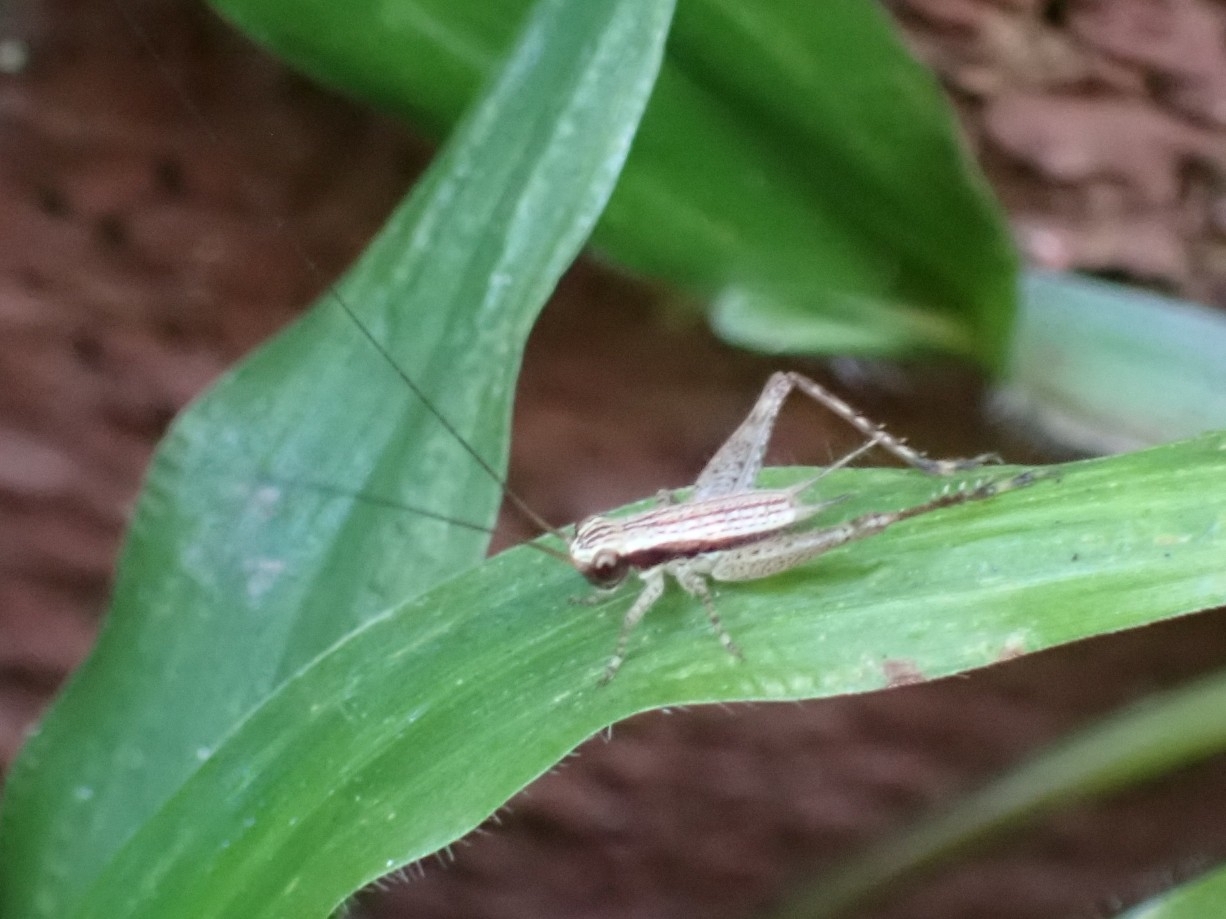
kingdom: Animalia
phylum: Arthropoda
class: Insecta
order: Orthoptera
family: Gryllidae
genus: Cardiodactylus
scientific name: Cardiodactylus novaeguineae
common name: Sad cricket
